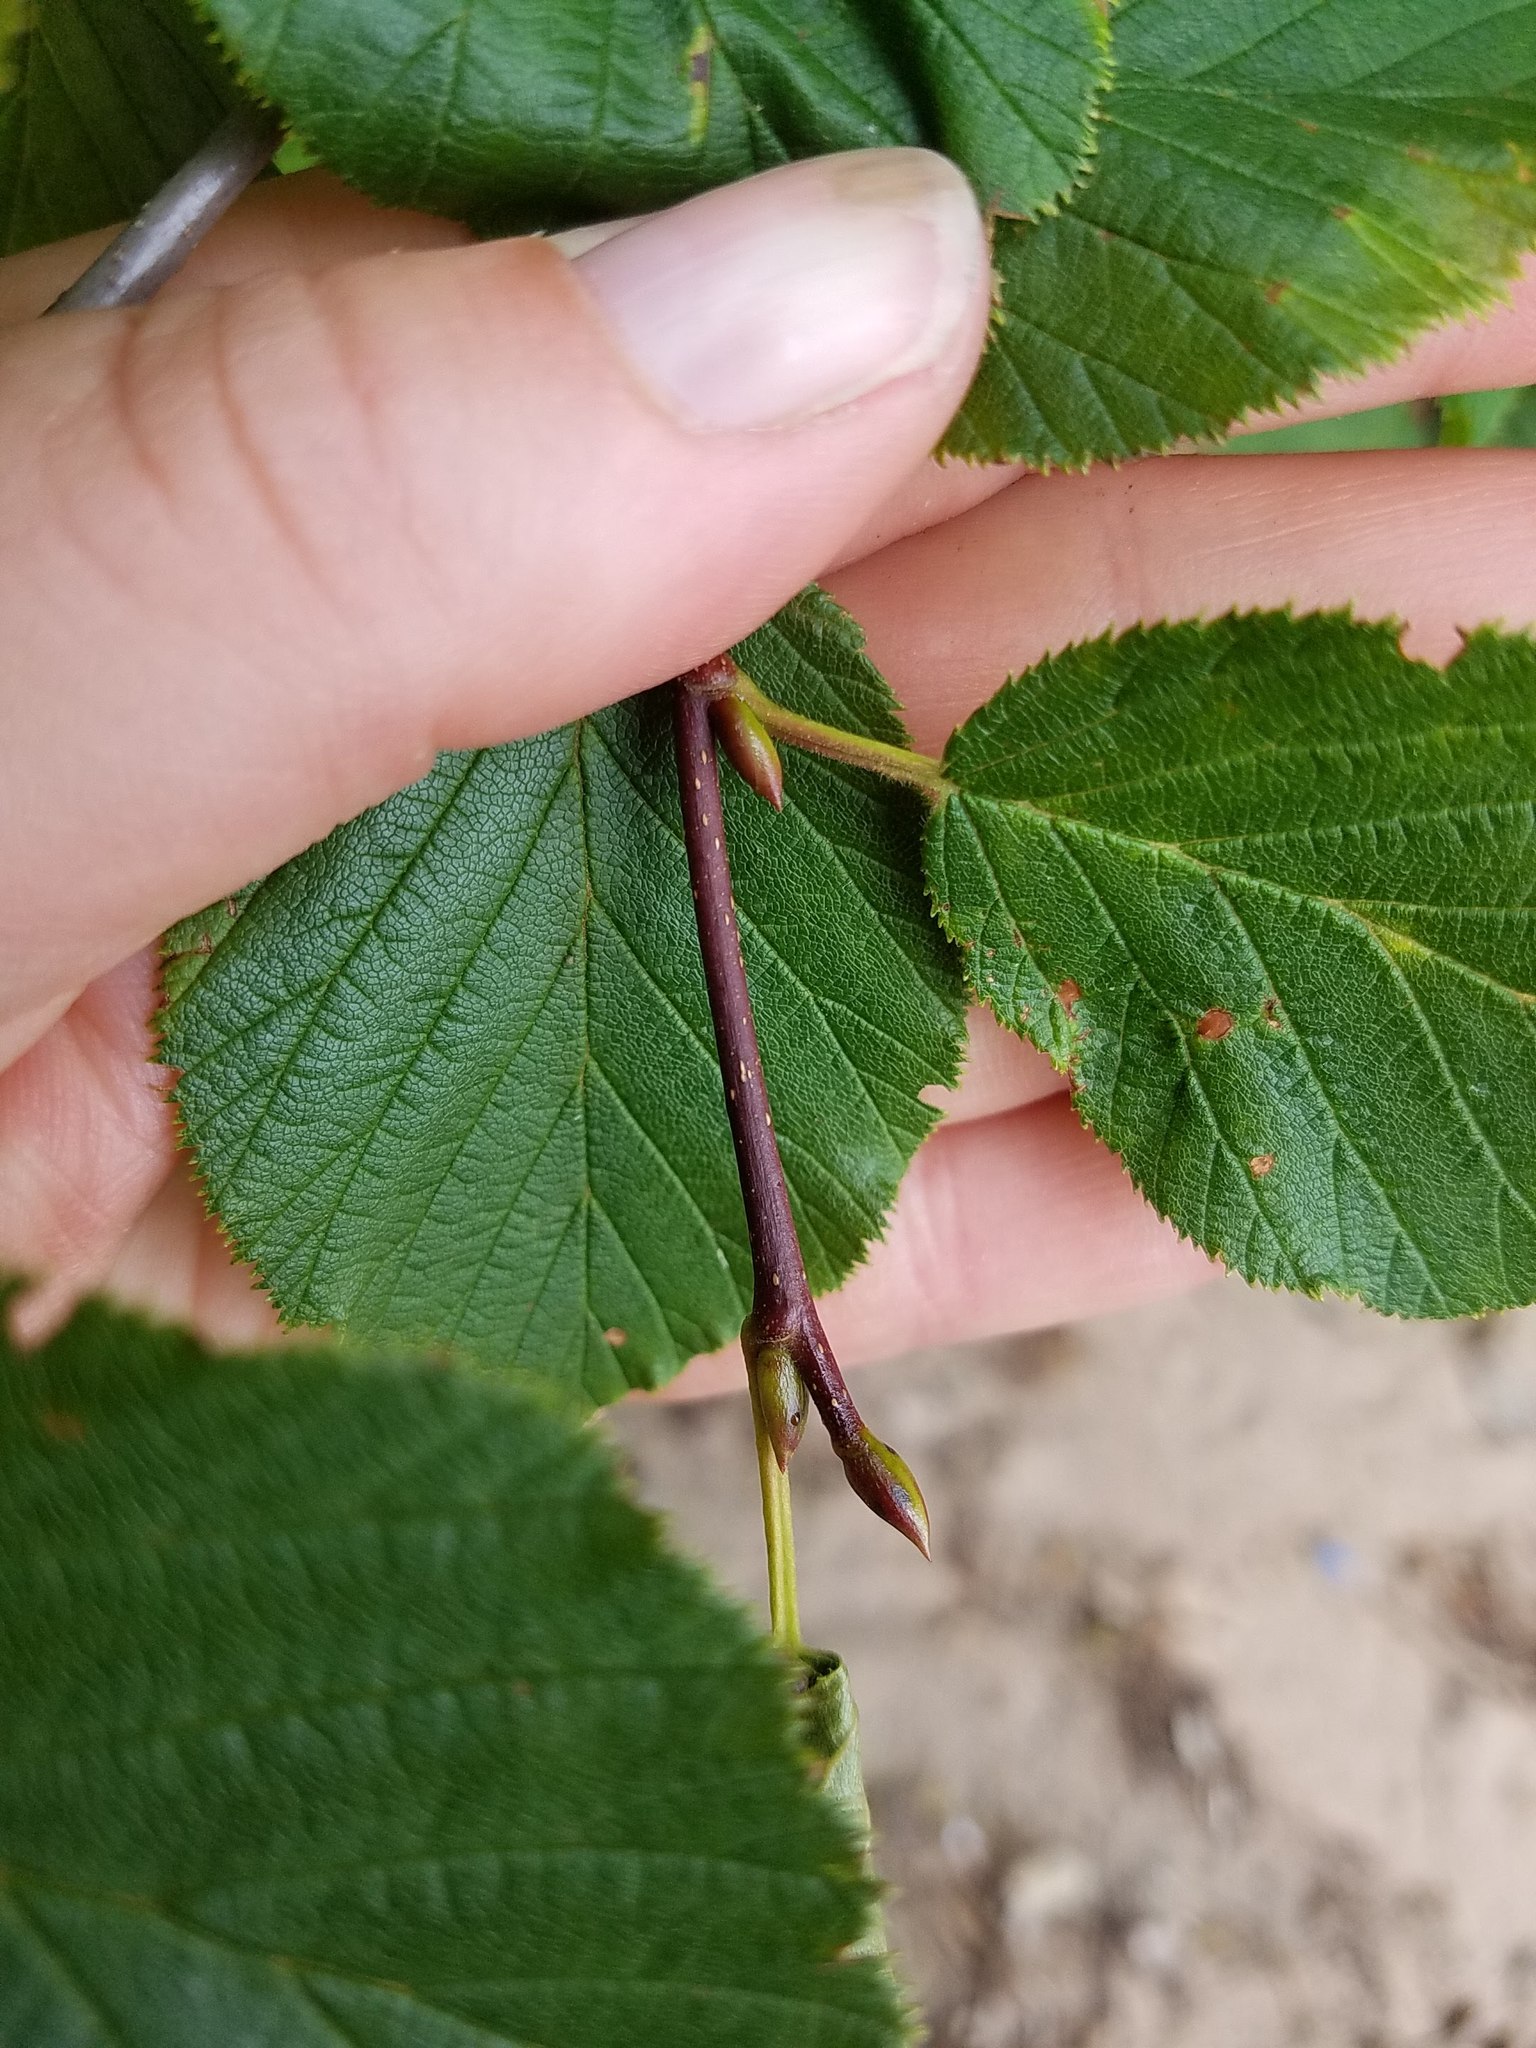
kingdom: Plantae
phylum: Tracheophyta
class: Magnoliopsida
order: Fagales
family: Betulaceae
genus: Alnus
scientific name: Alnus alnobetula
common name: Green alder
